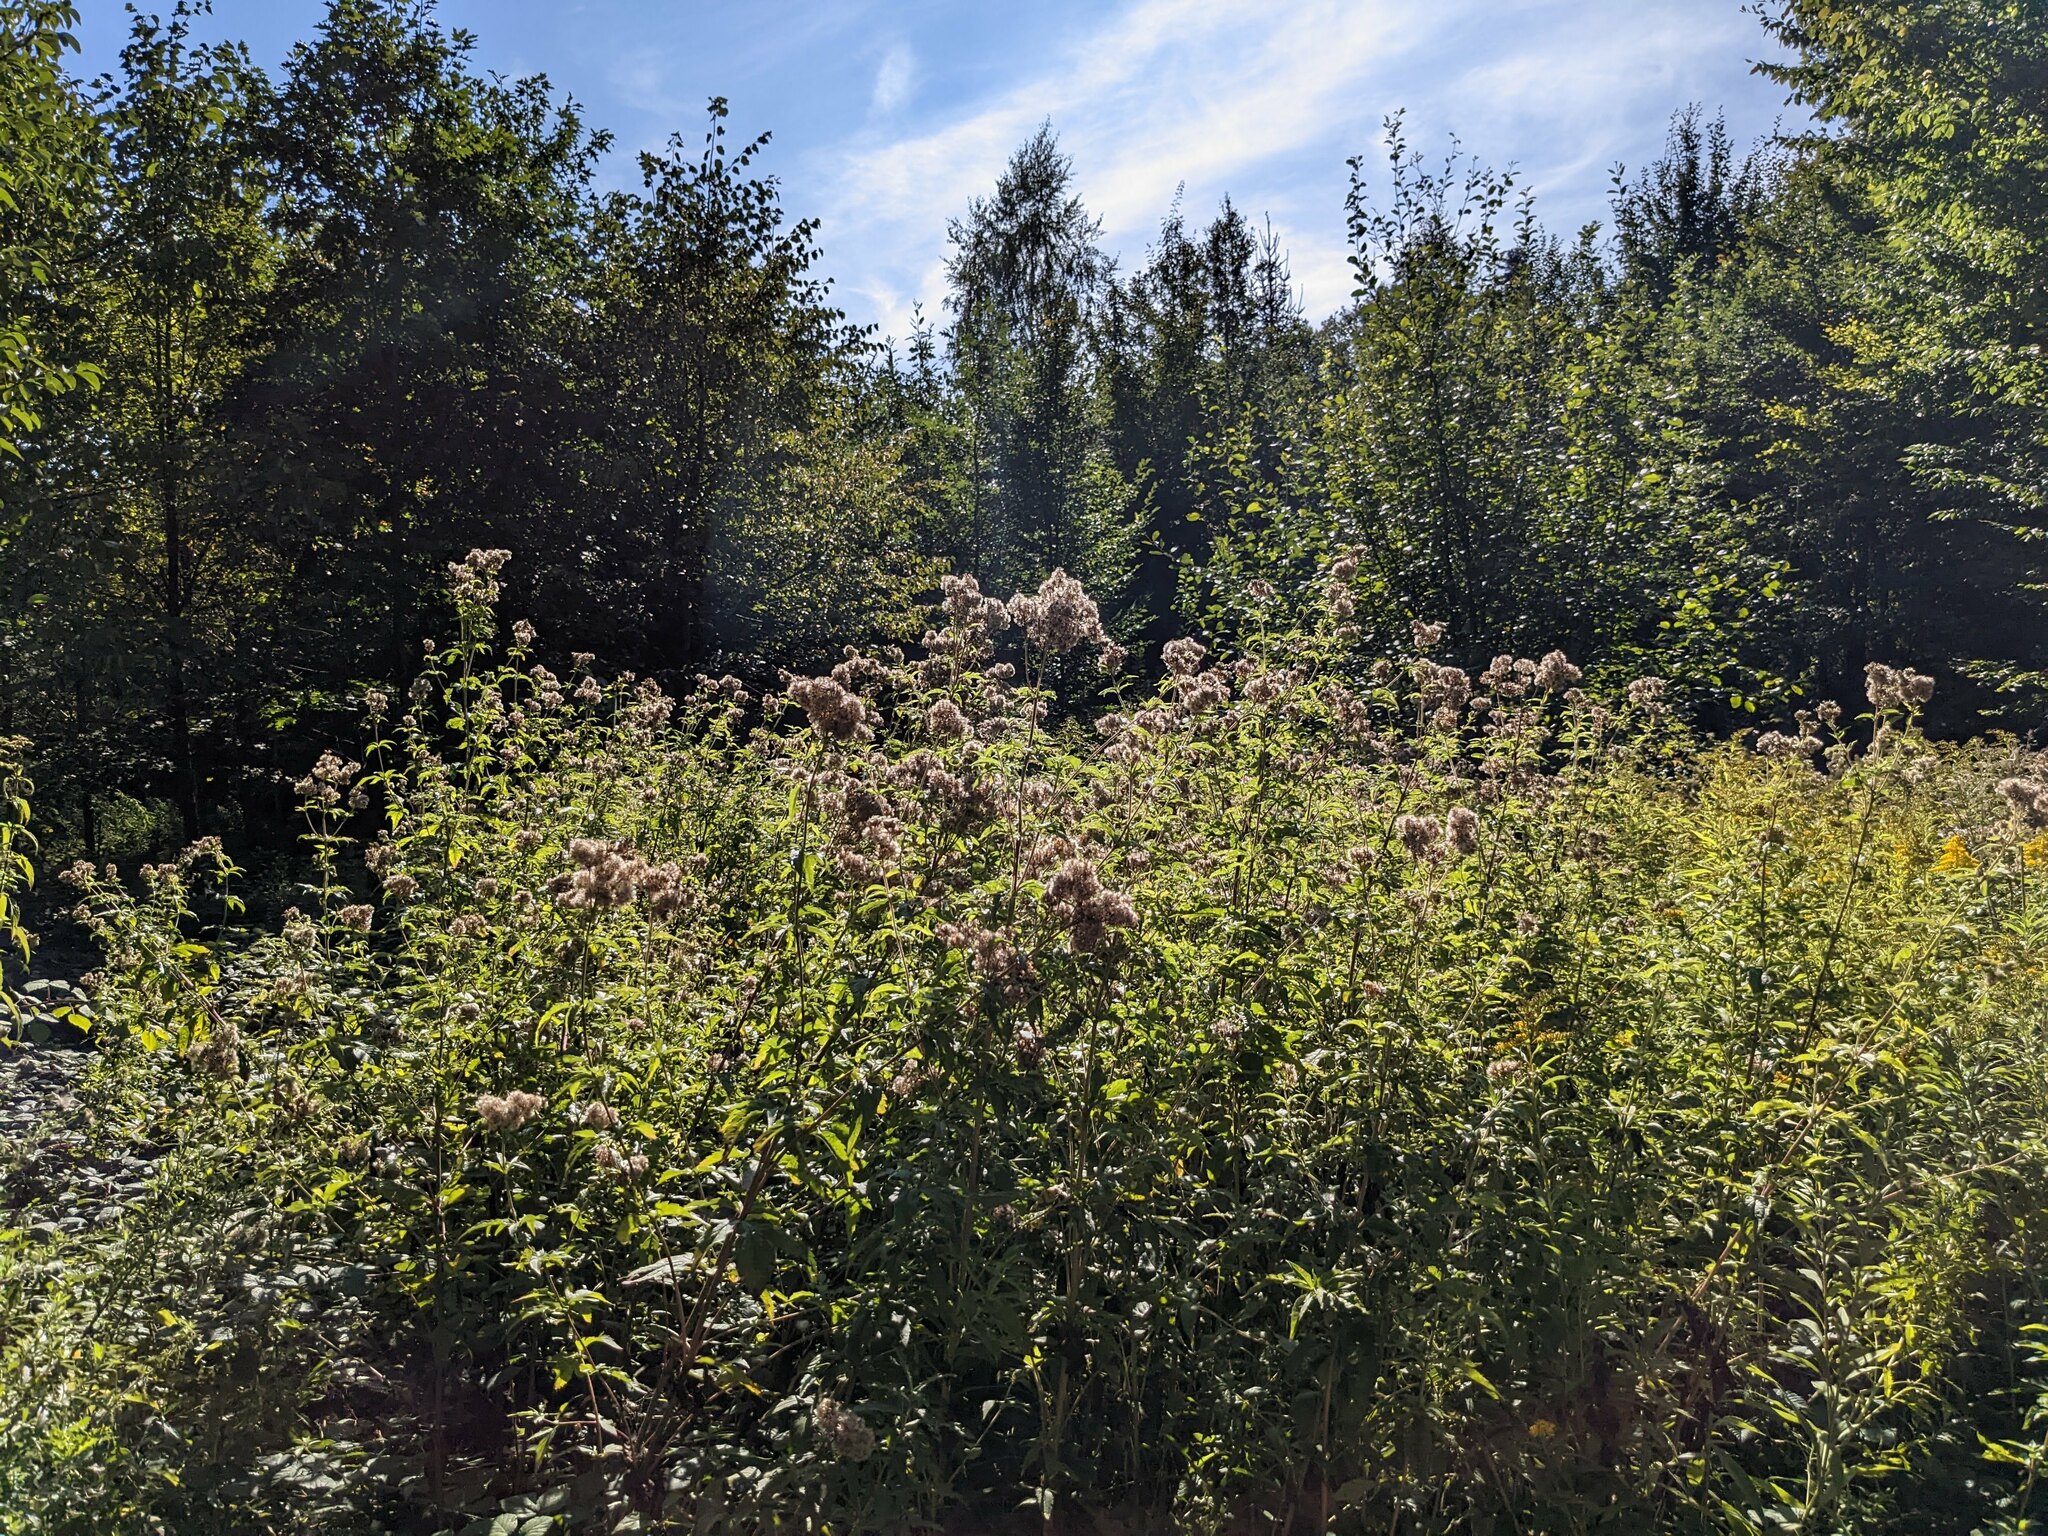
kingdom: Plantae
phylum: Tracheophyta
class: Magnoliopsida
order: Asterales
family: Asteraceae
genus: Eupatorium
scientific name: Eupatorium cannabinum
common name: Hemp-agrimony
